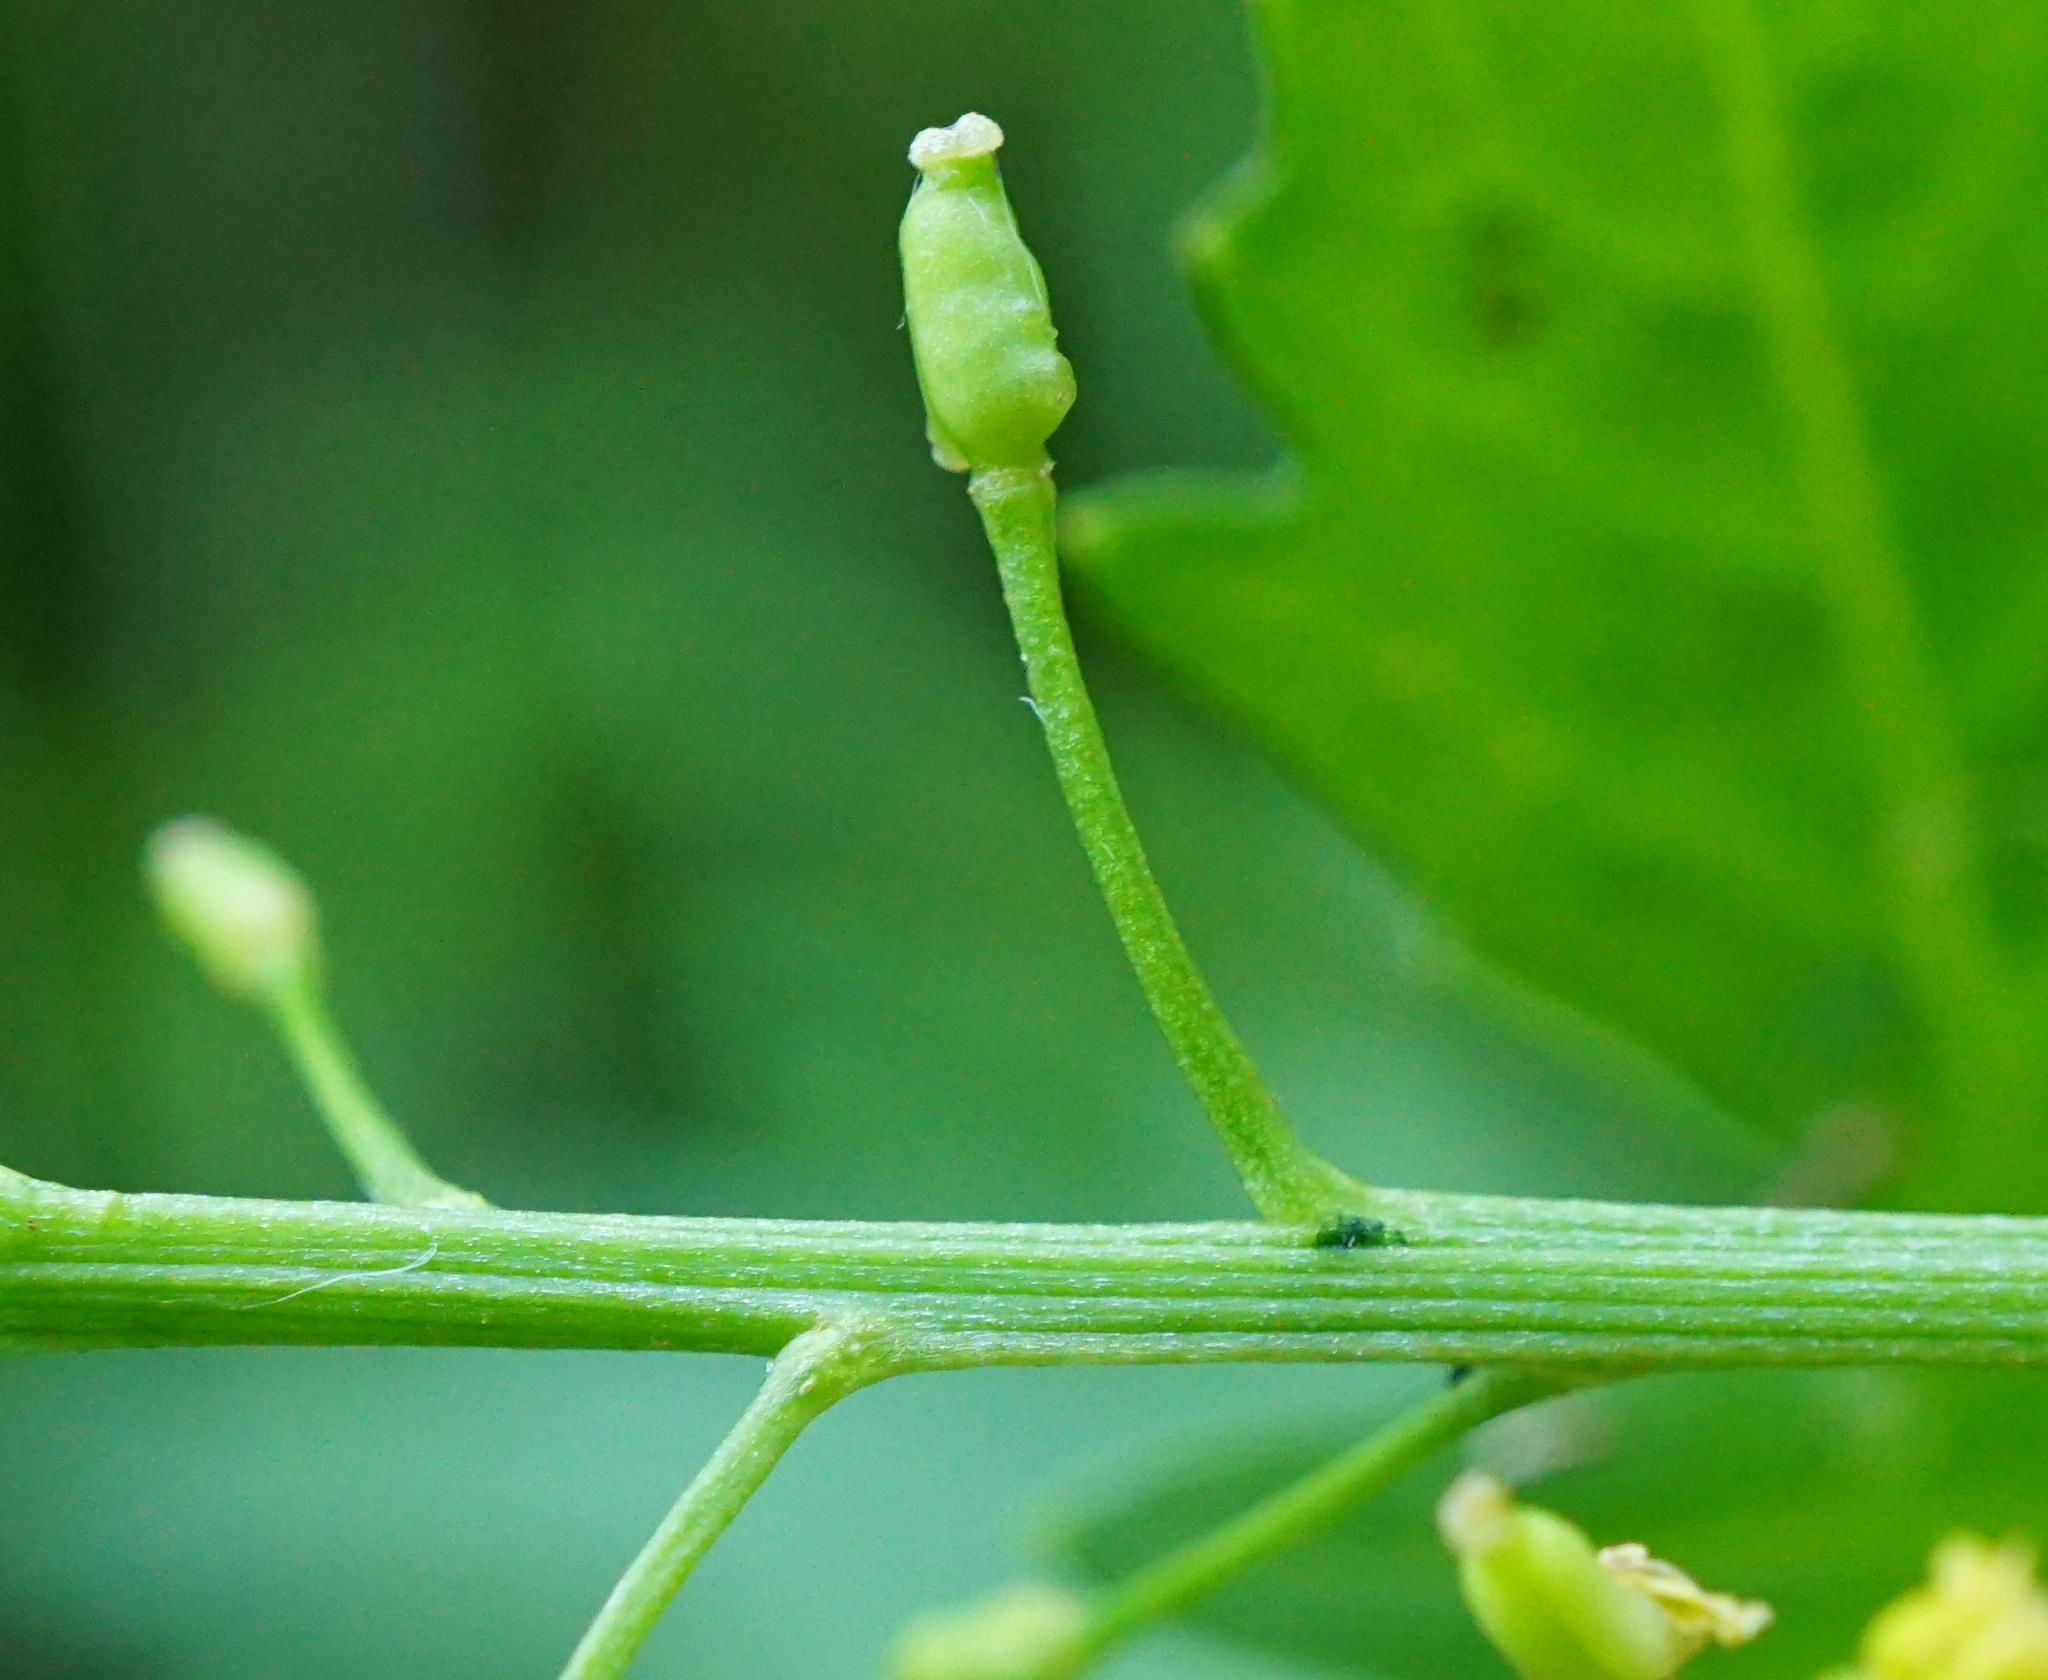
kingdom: Plantae
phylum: Tracheophyta
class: Magnoliopsida
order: Brassicales
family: Brassicaceae
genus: Rorippa
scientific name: Rorippa sylvestris
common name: Creeping yellowcress
